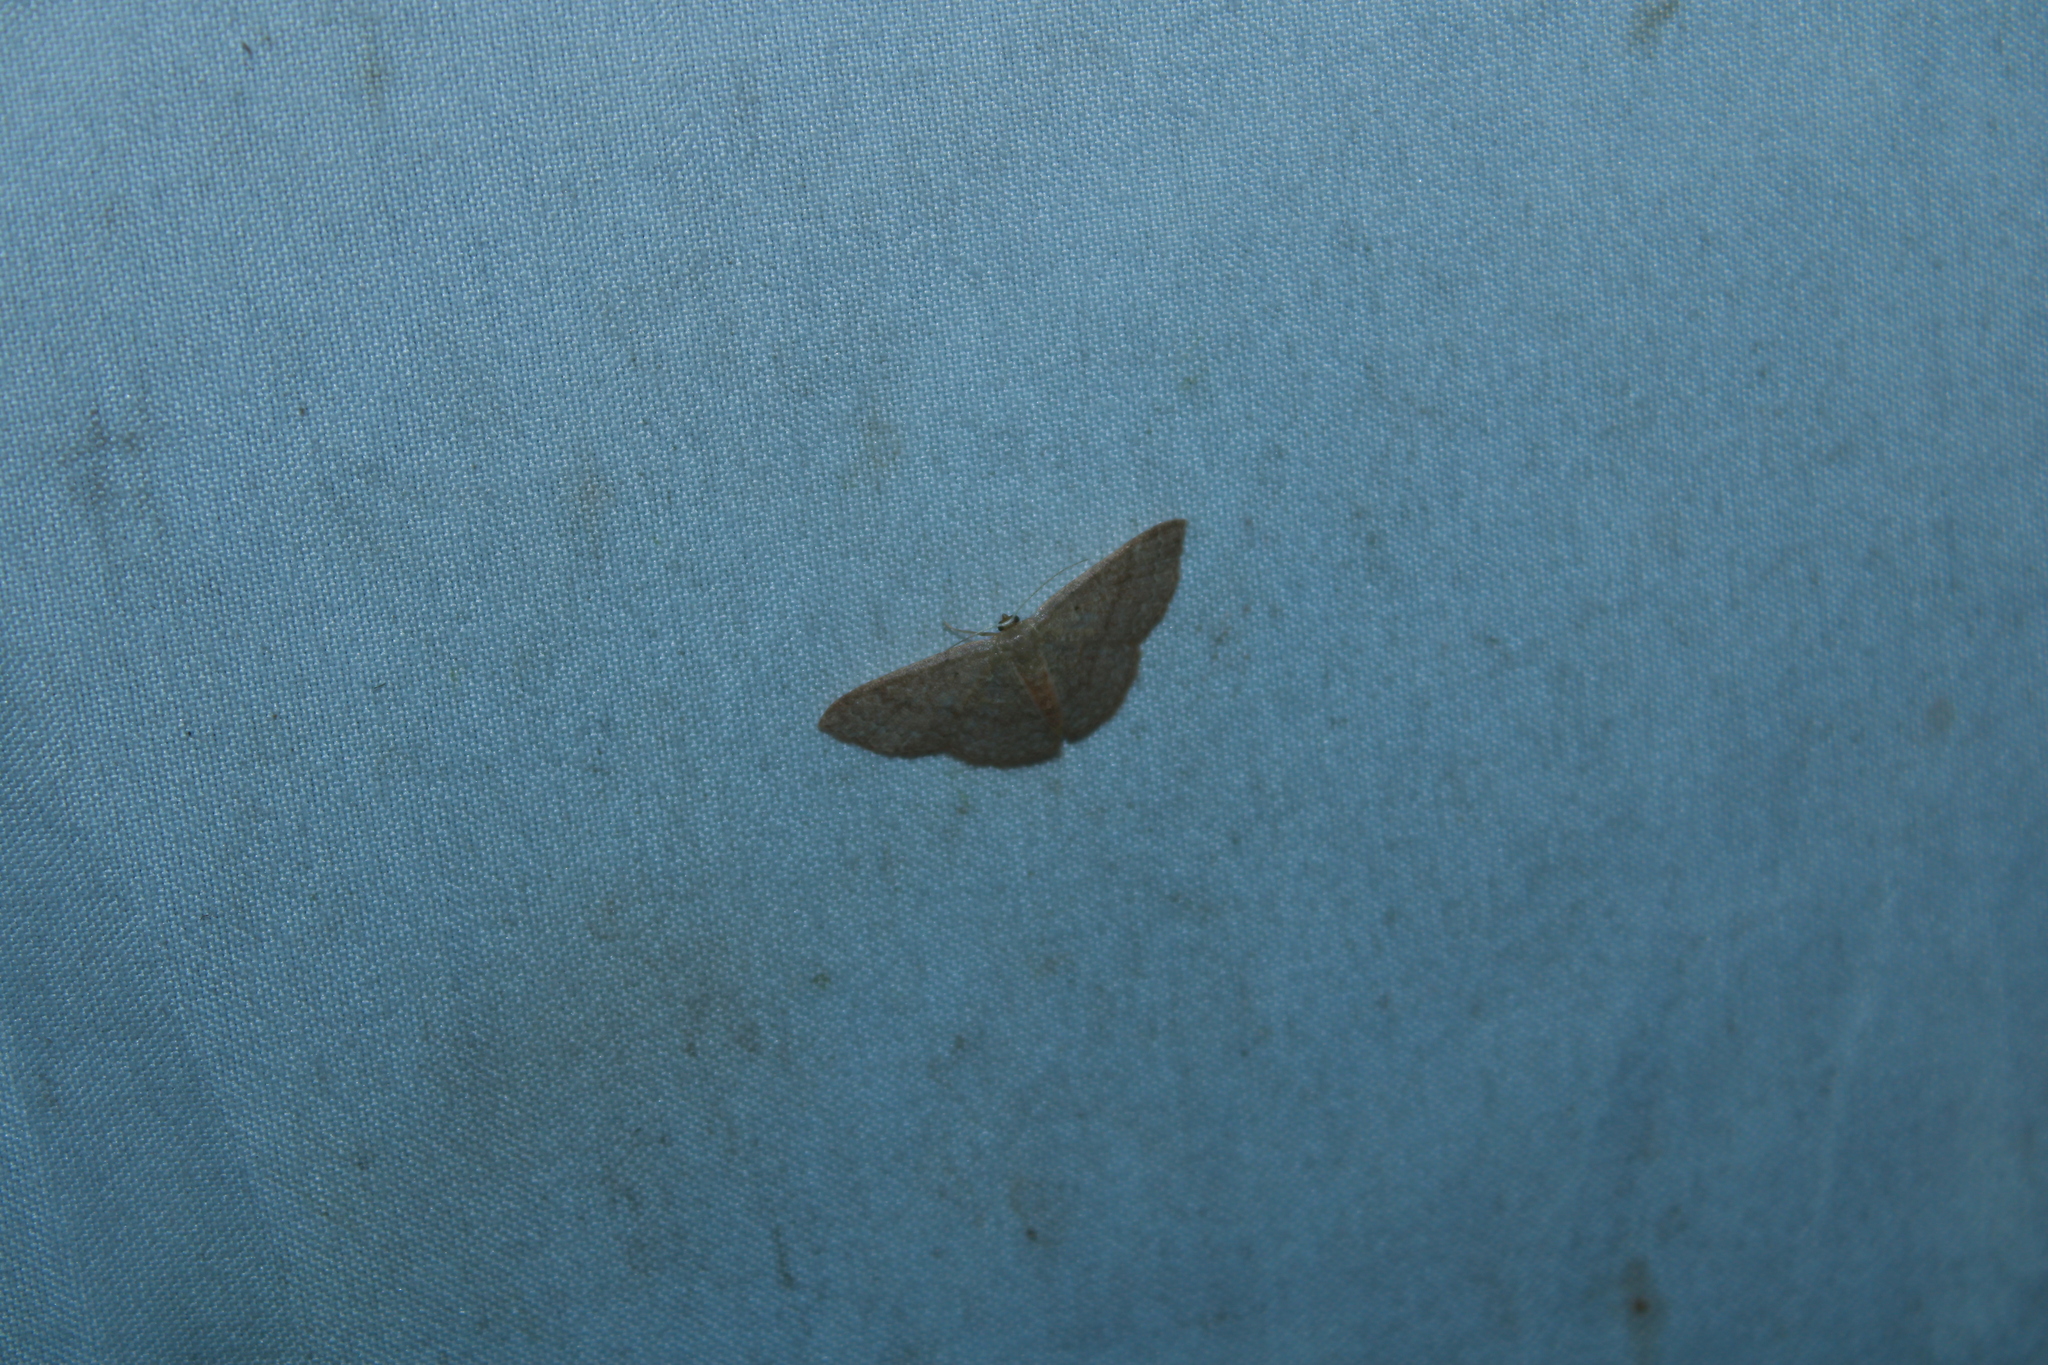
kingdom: Animalia
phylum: Arthropoda
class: Insecta
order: Lepidoptera
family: Geometridae
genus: Pleuroprucha
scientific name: Pleuroprucha insulsaria
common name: Common tan wave
